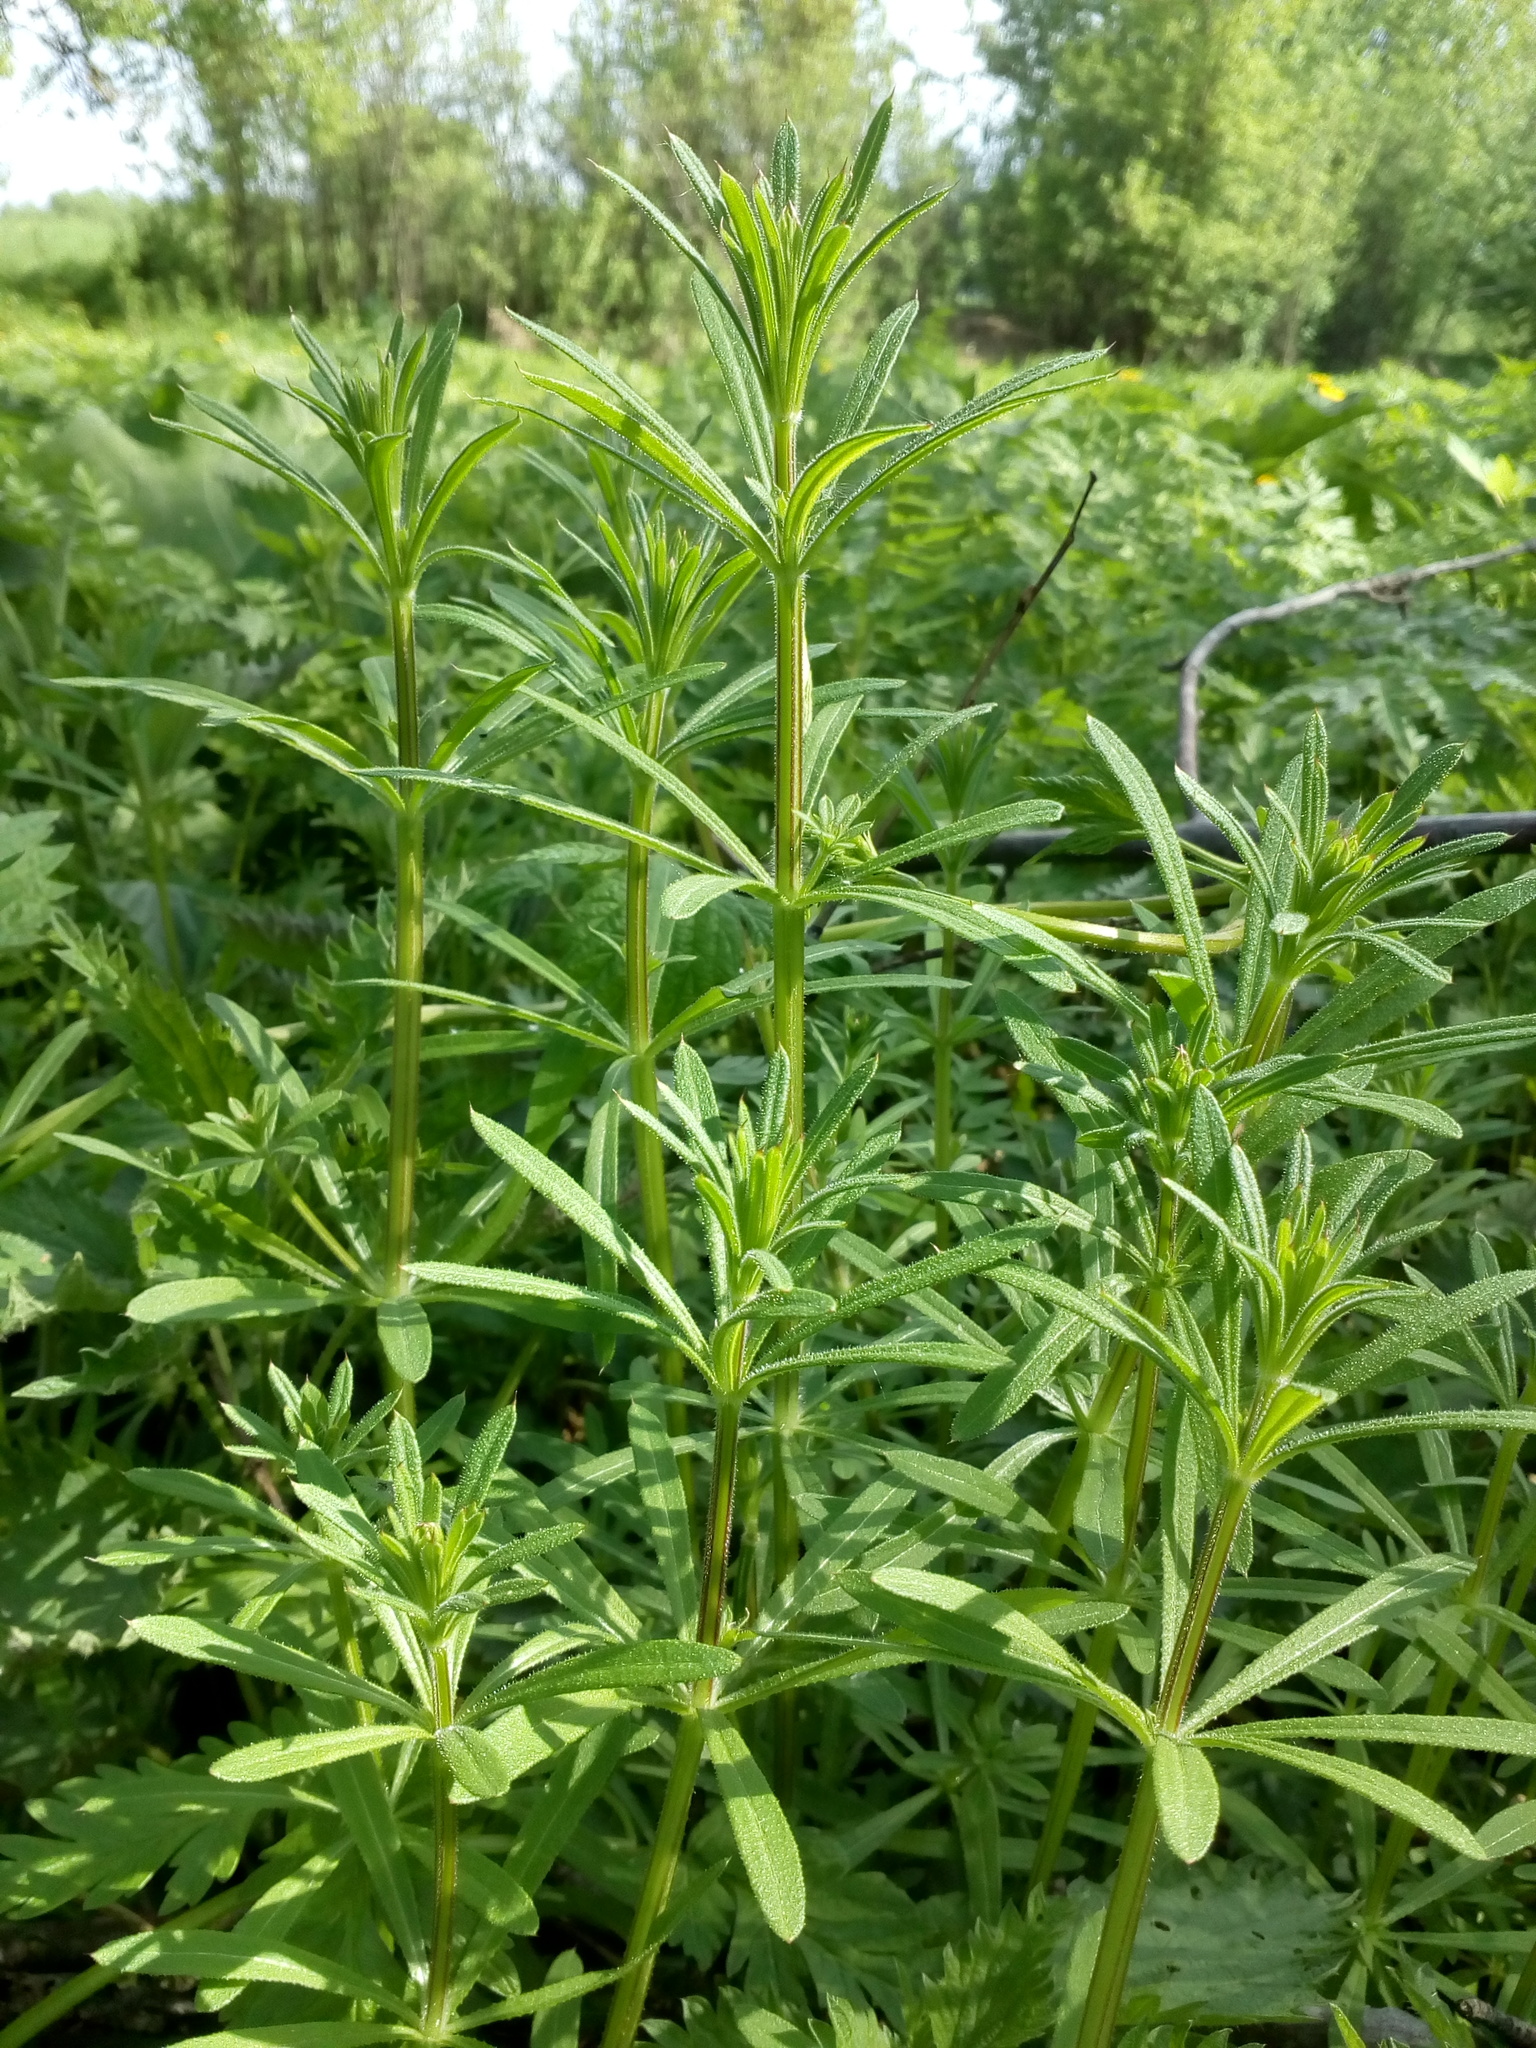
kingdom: Plantae
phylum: Tracheophyta
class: Magnoliopsida
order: Gentianales
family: Rubiaceae
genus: Galium
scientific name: Galium aparine
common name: Cleavers
